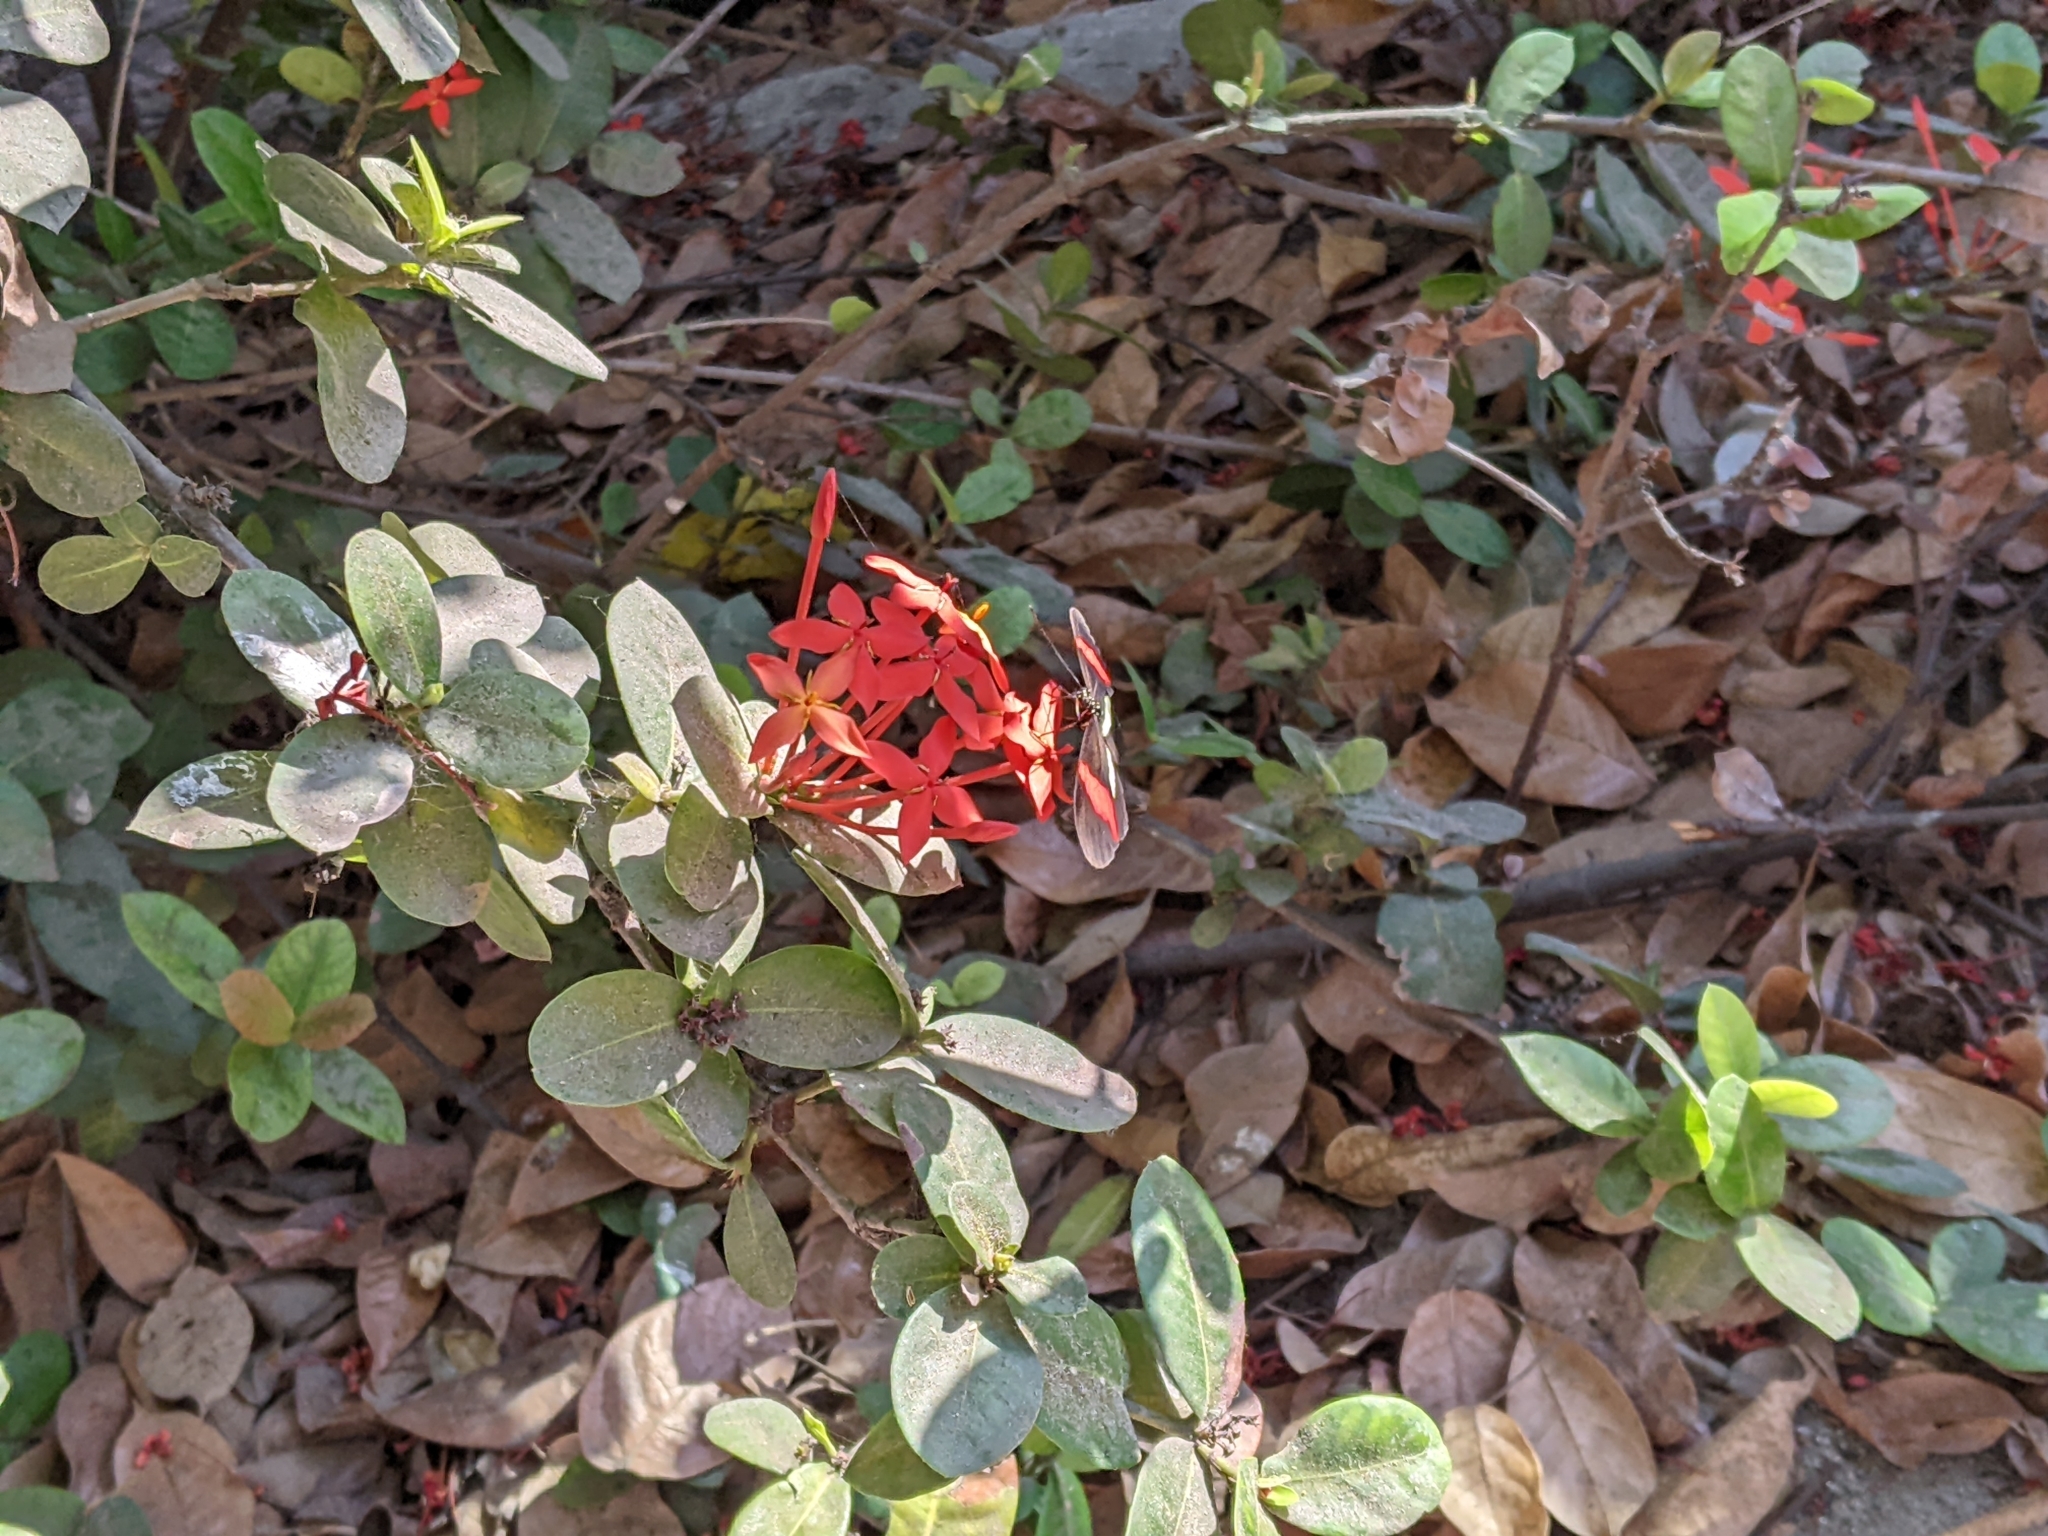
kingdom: Animalia
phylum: Arthropoda
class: Insecta
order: Lepidoptera
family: Nymphalidae
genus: Heliconius
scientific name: Heliconius erato
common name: Common patch longwing
